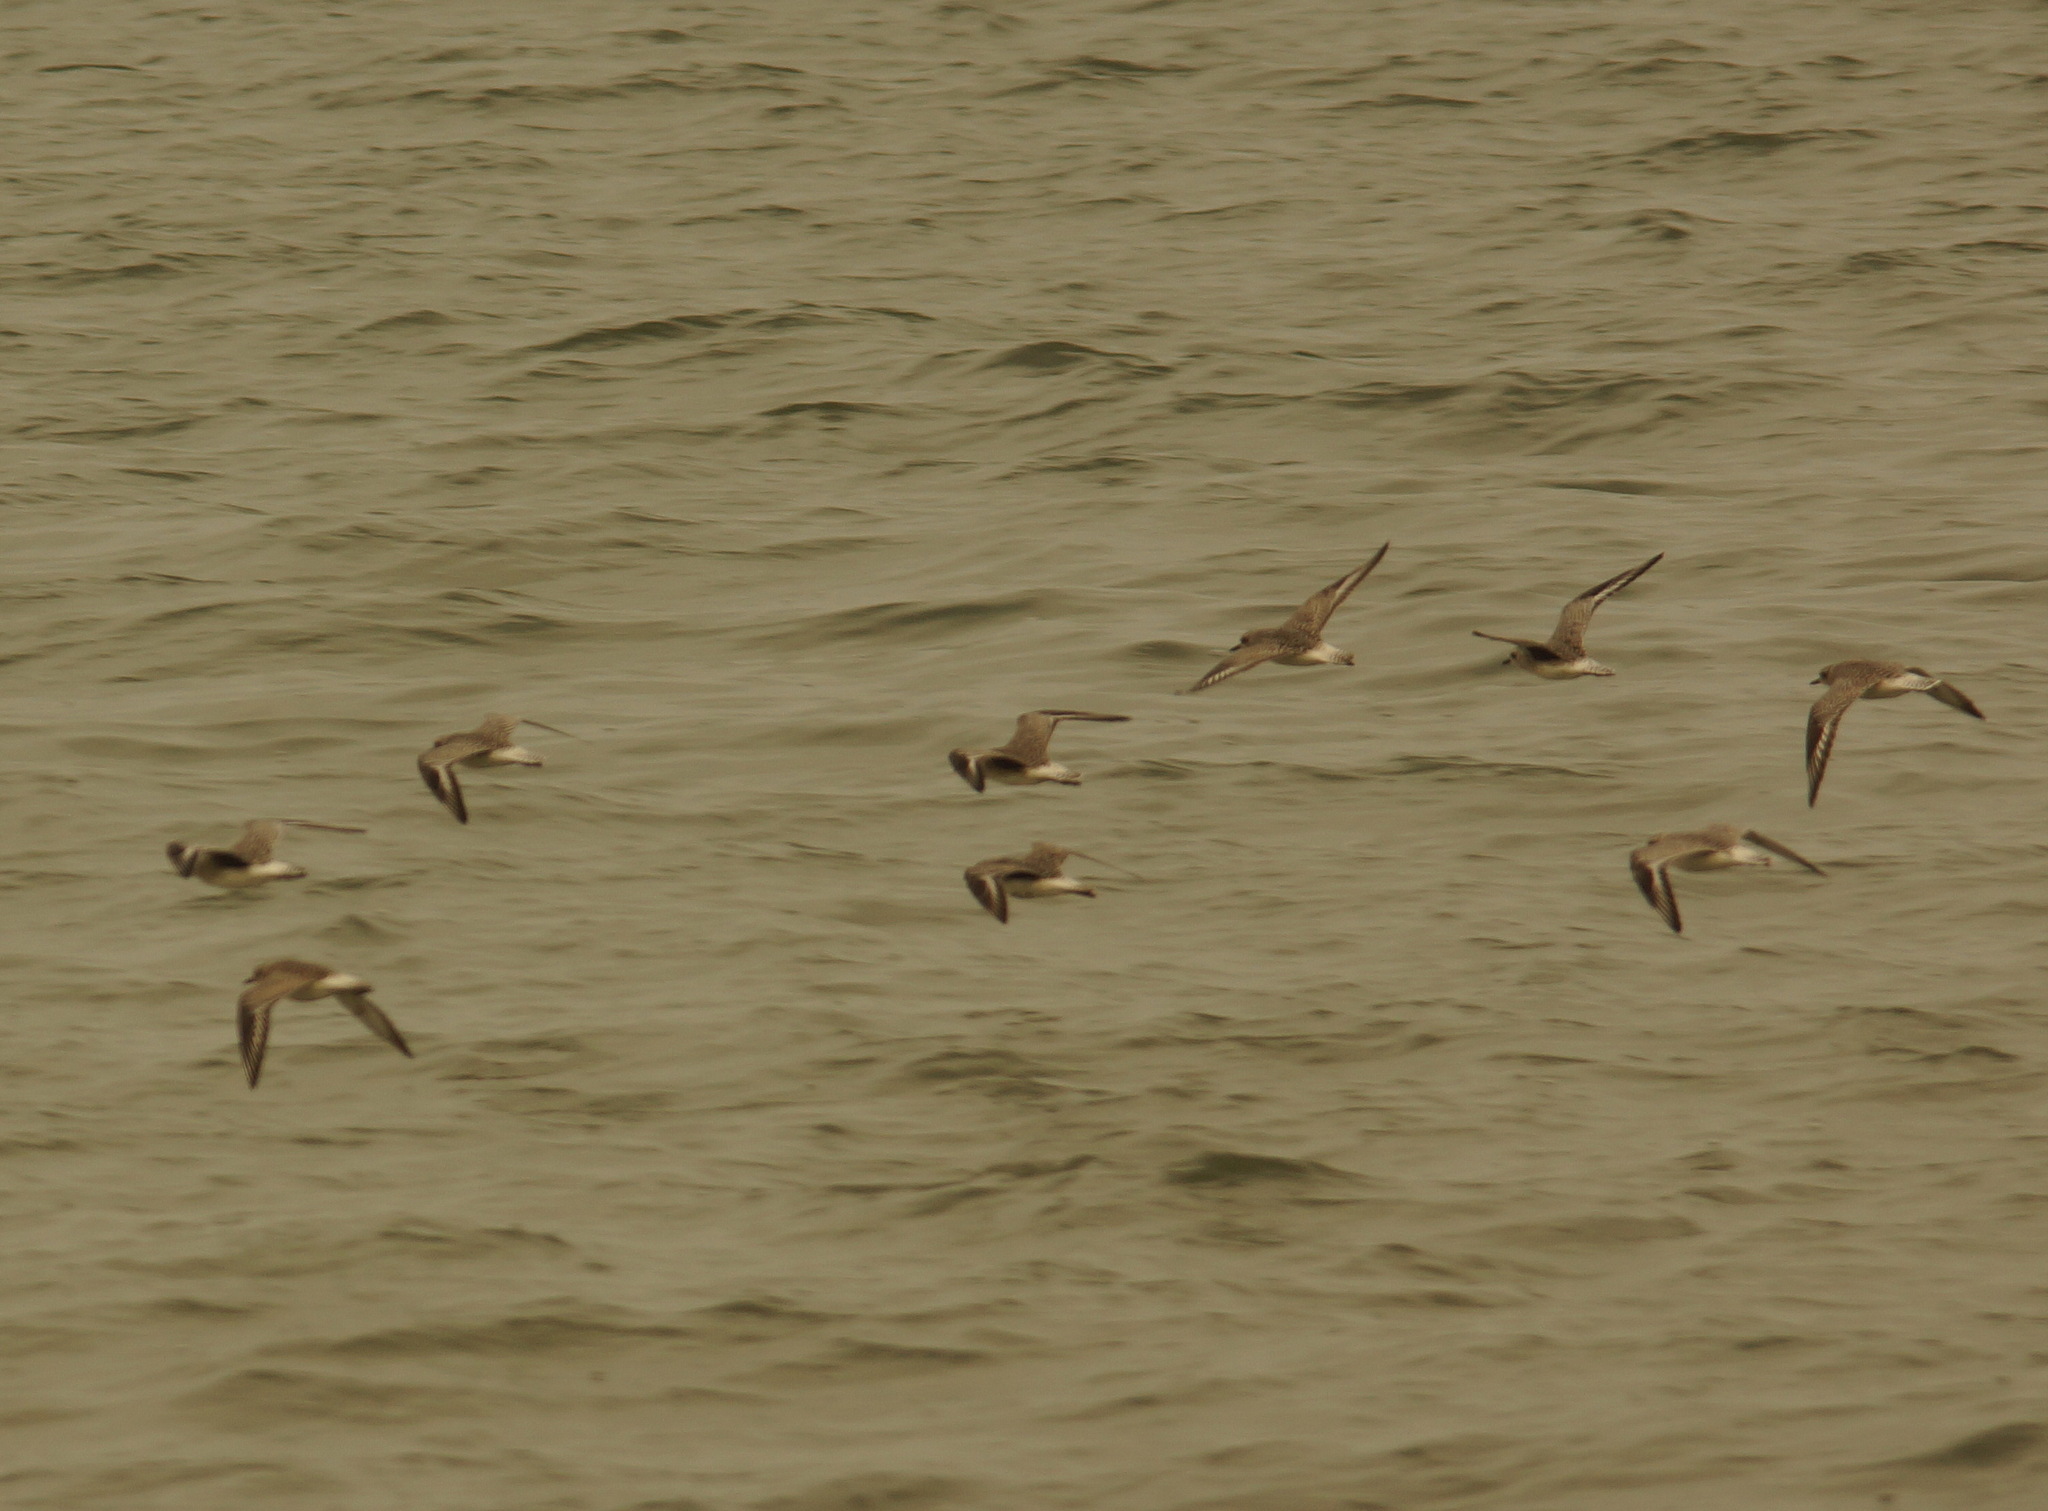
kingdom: Animalia
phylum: Chordata
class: Aves
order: Charadriiformes
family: Charadriidae
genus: Pluvialis
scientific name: Pluvialis squatarola
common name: Grey plover
